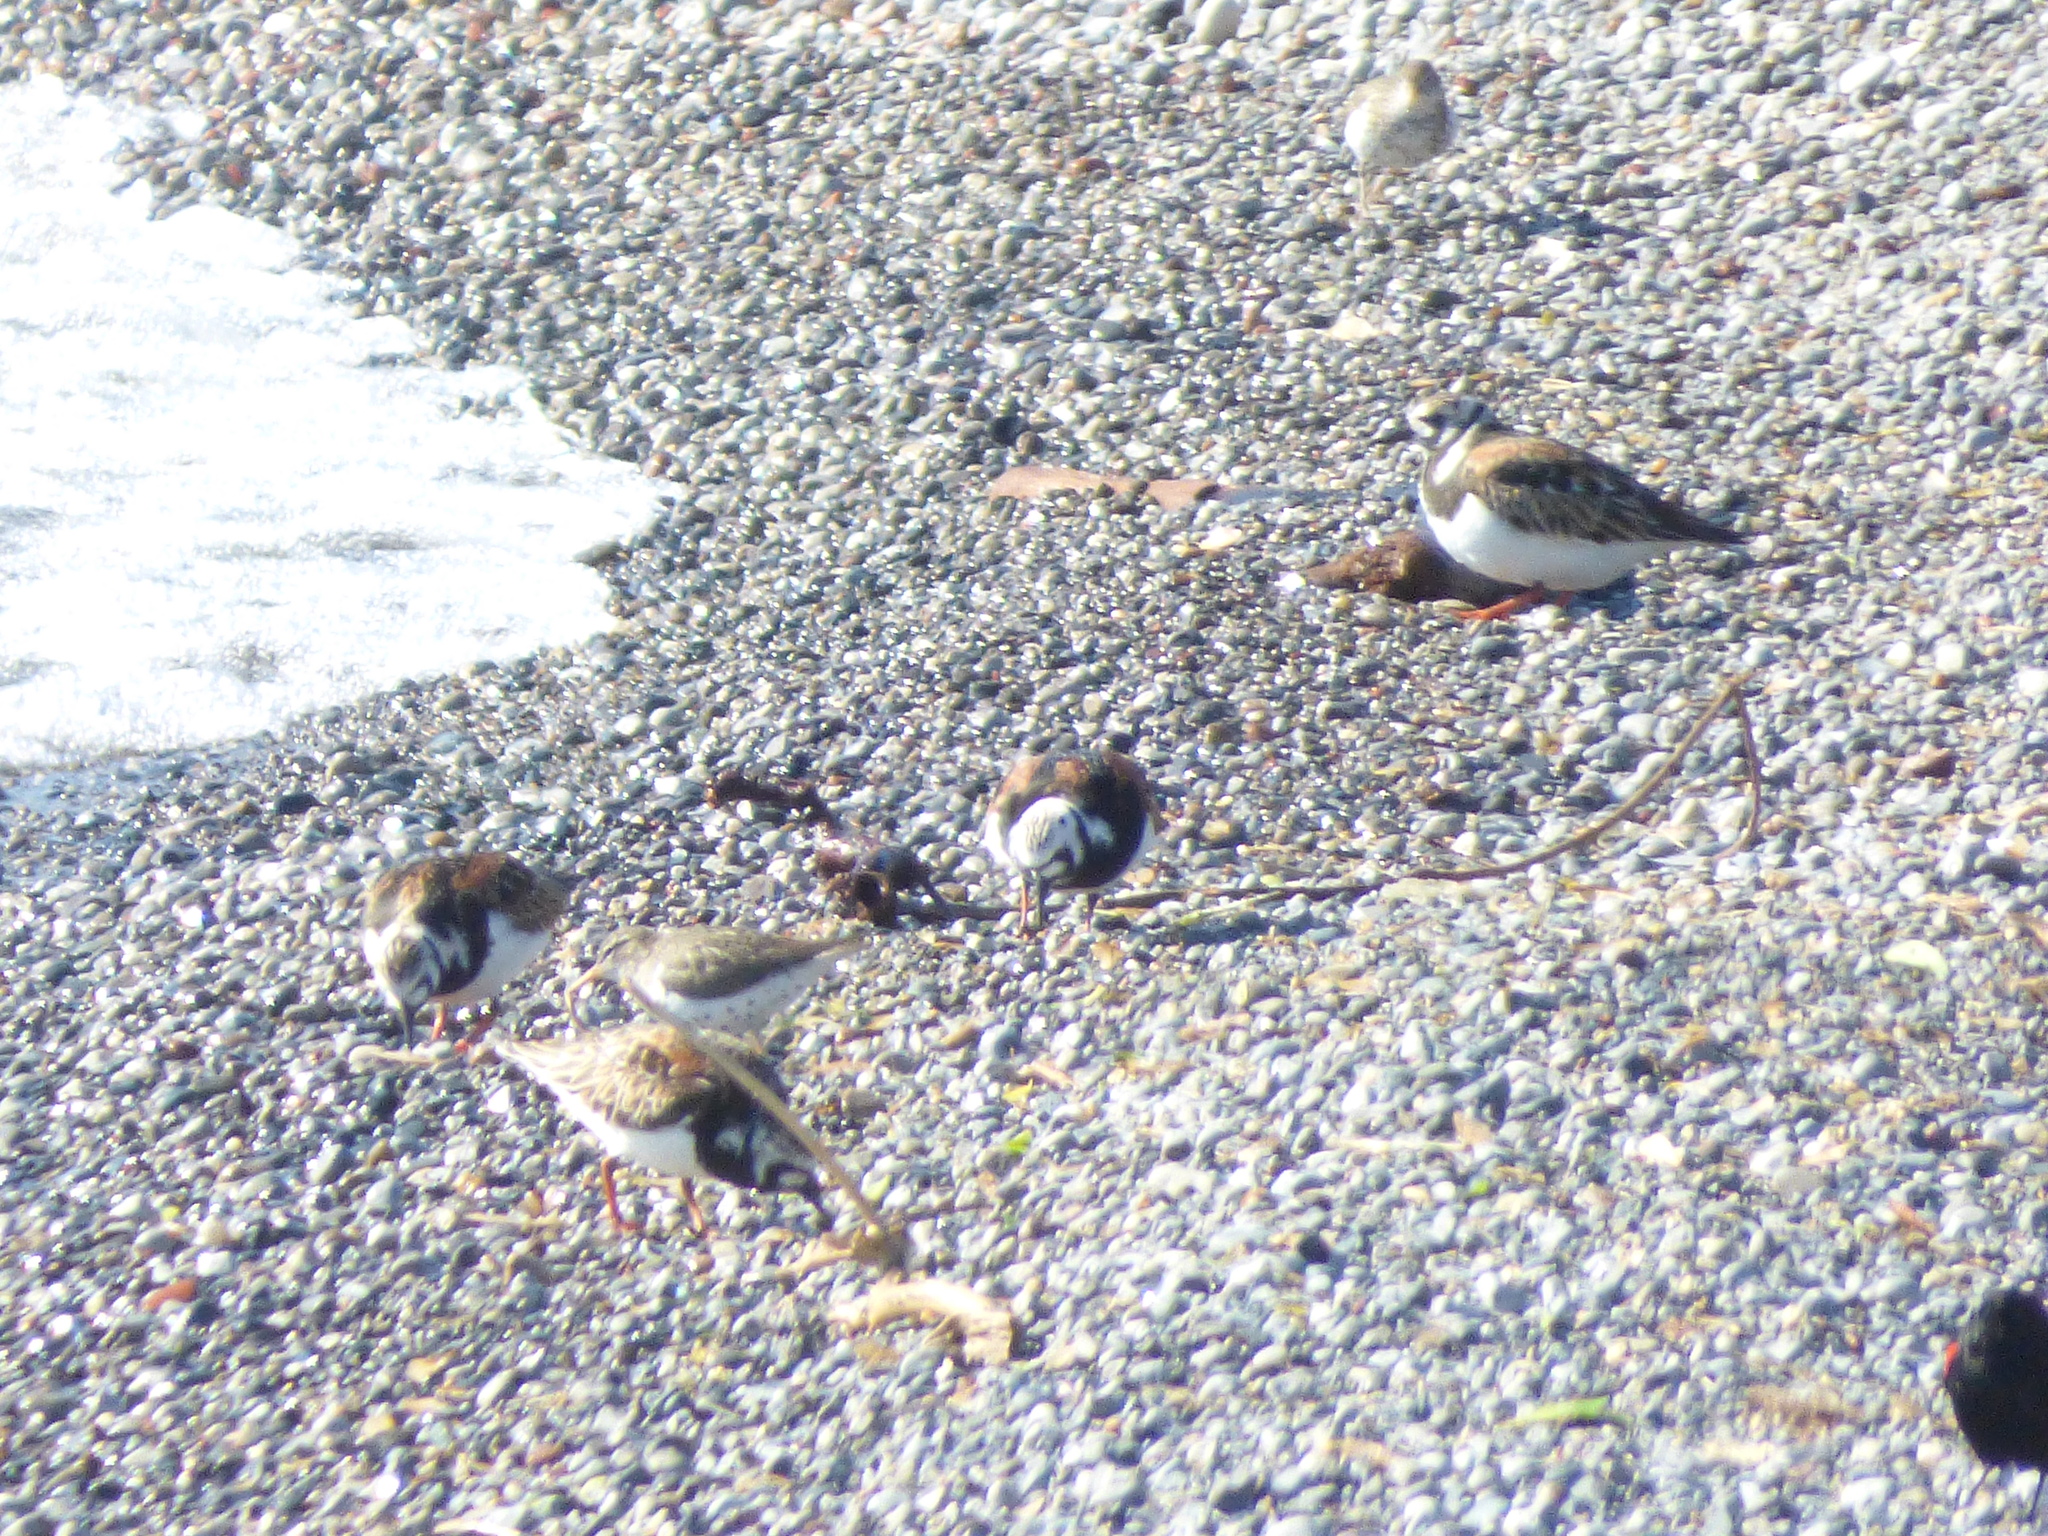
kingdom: Animalia
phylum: Chordata
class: Aves
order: Charadriiformes
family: Scolopacidae
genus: Arenaria
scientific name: Arenaria interpres
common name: Ruddy turnstone
